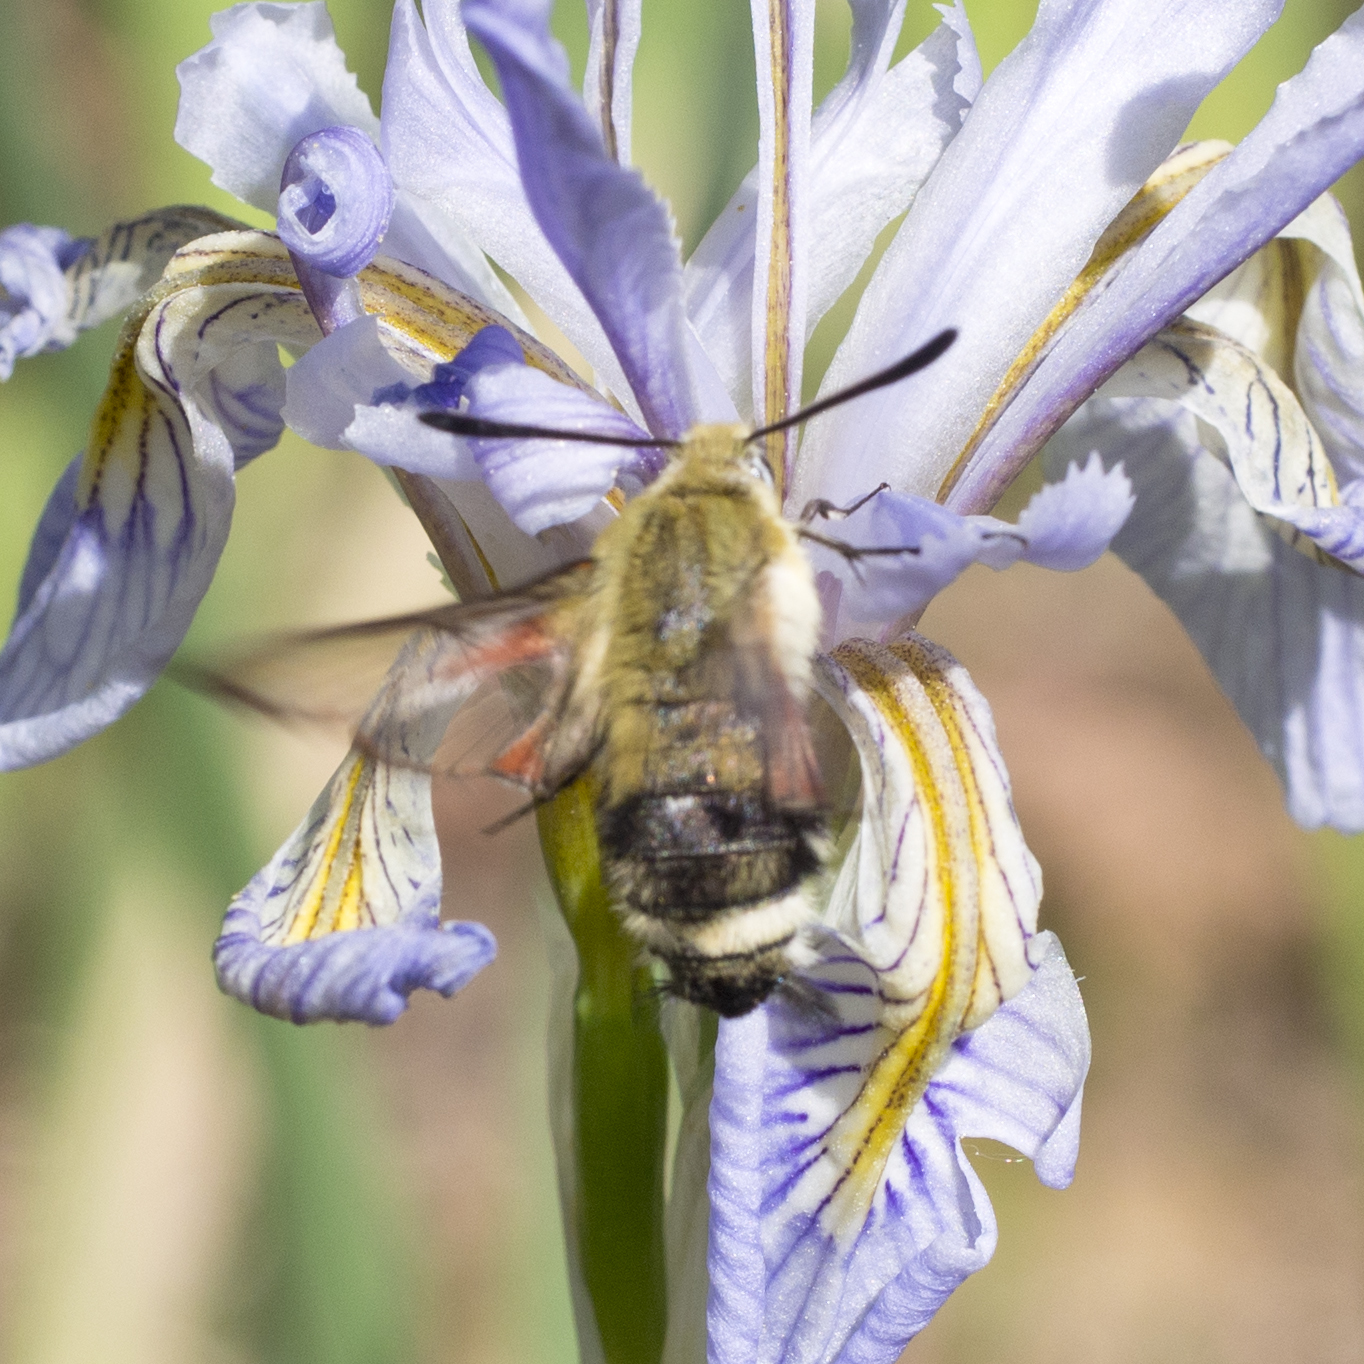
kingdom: Animalia
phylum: Arthropoda
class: Insecta
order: Lepidoptera
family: Sphingidae
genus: Hemaris
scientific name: Hemaris thetis
